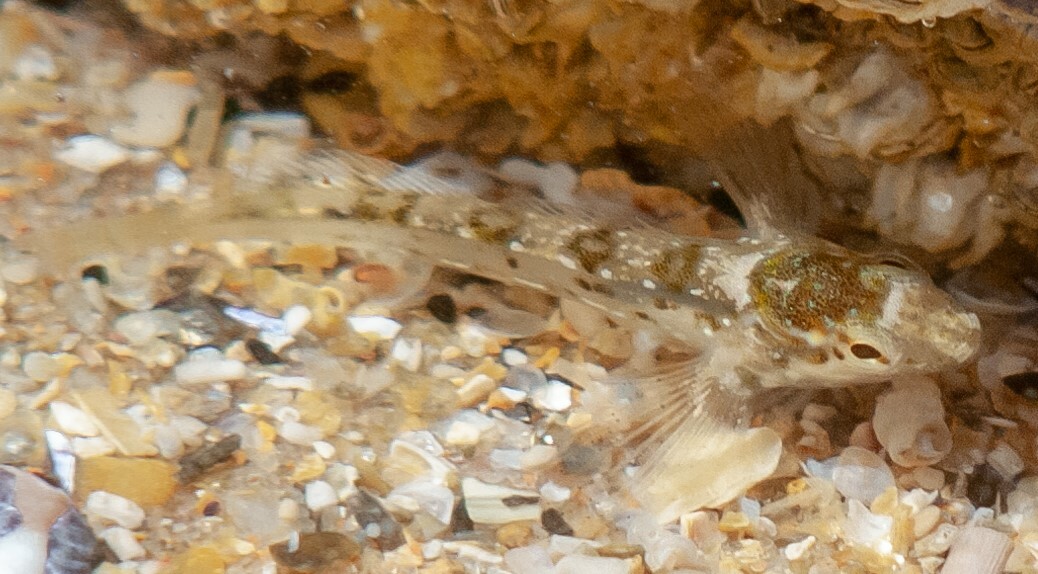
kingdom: Animalia
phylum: Chordata
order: Perciformes
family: Blenniidae
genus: Lipophrys
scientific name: Lipophrys pholis
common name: Shanny
